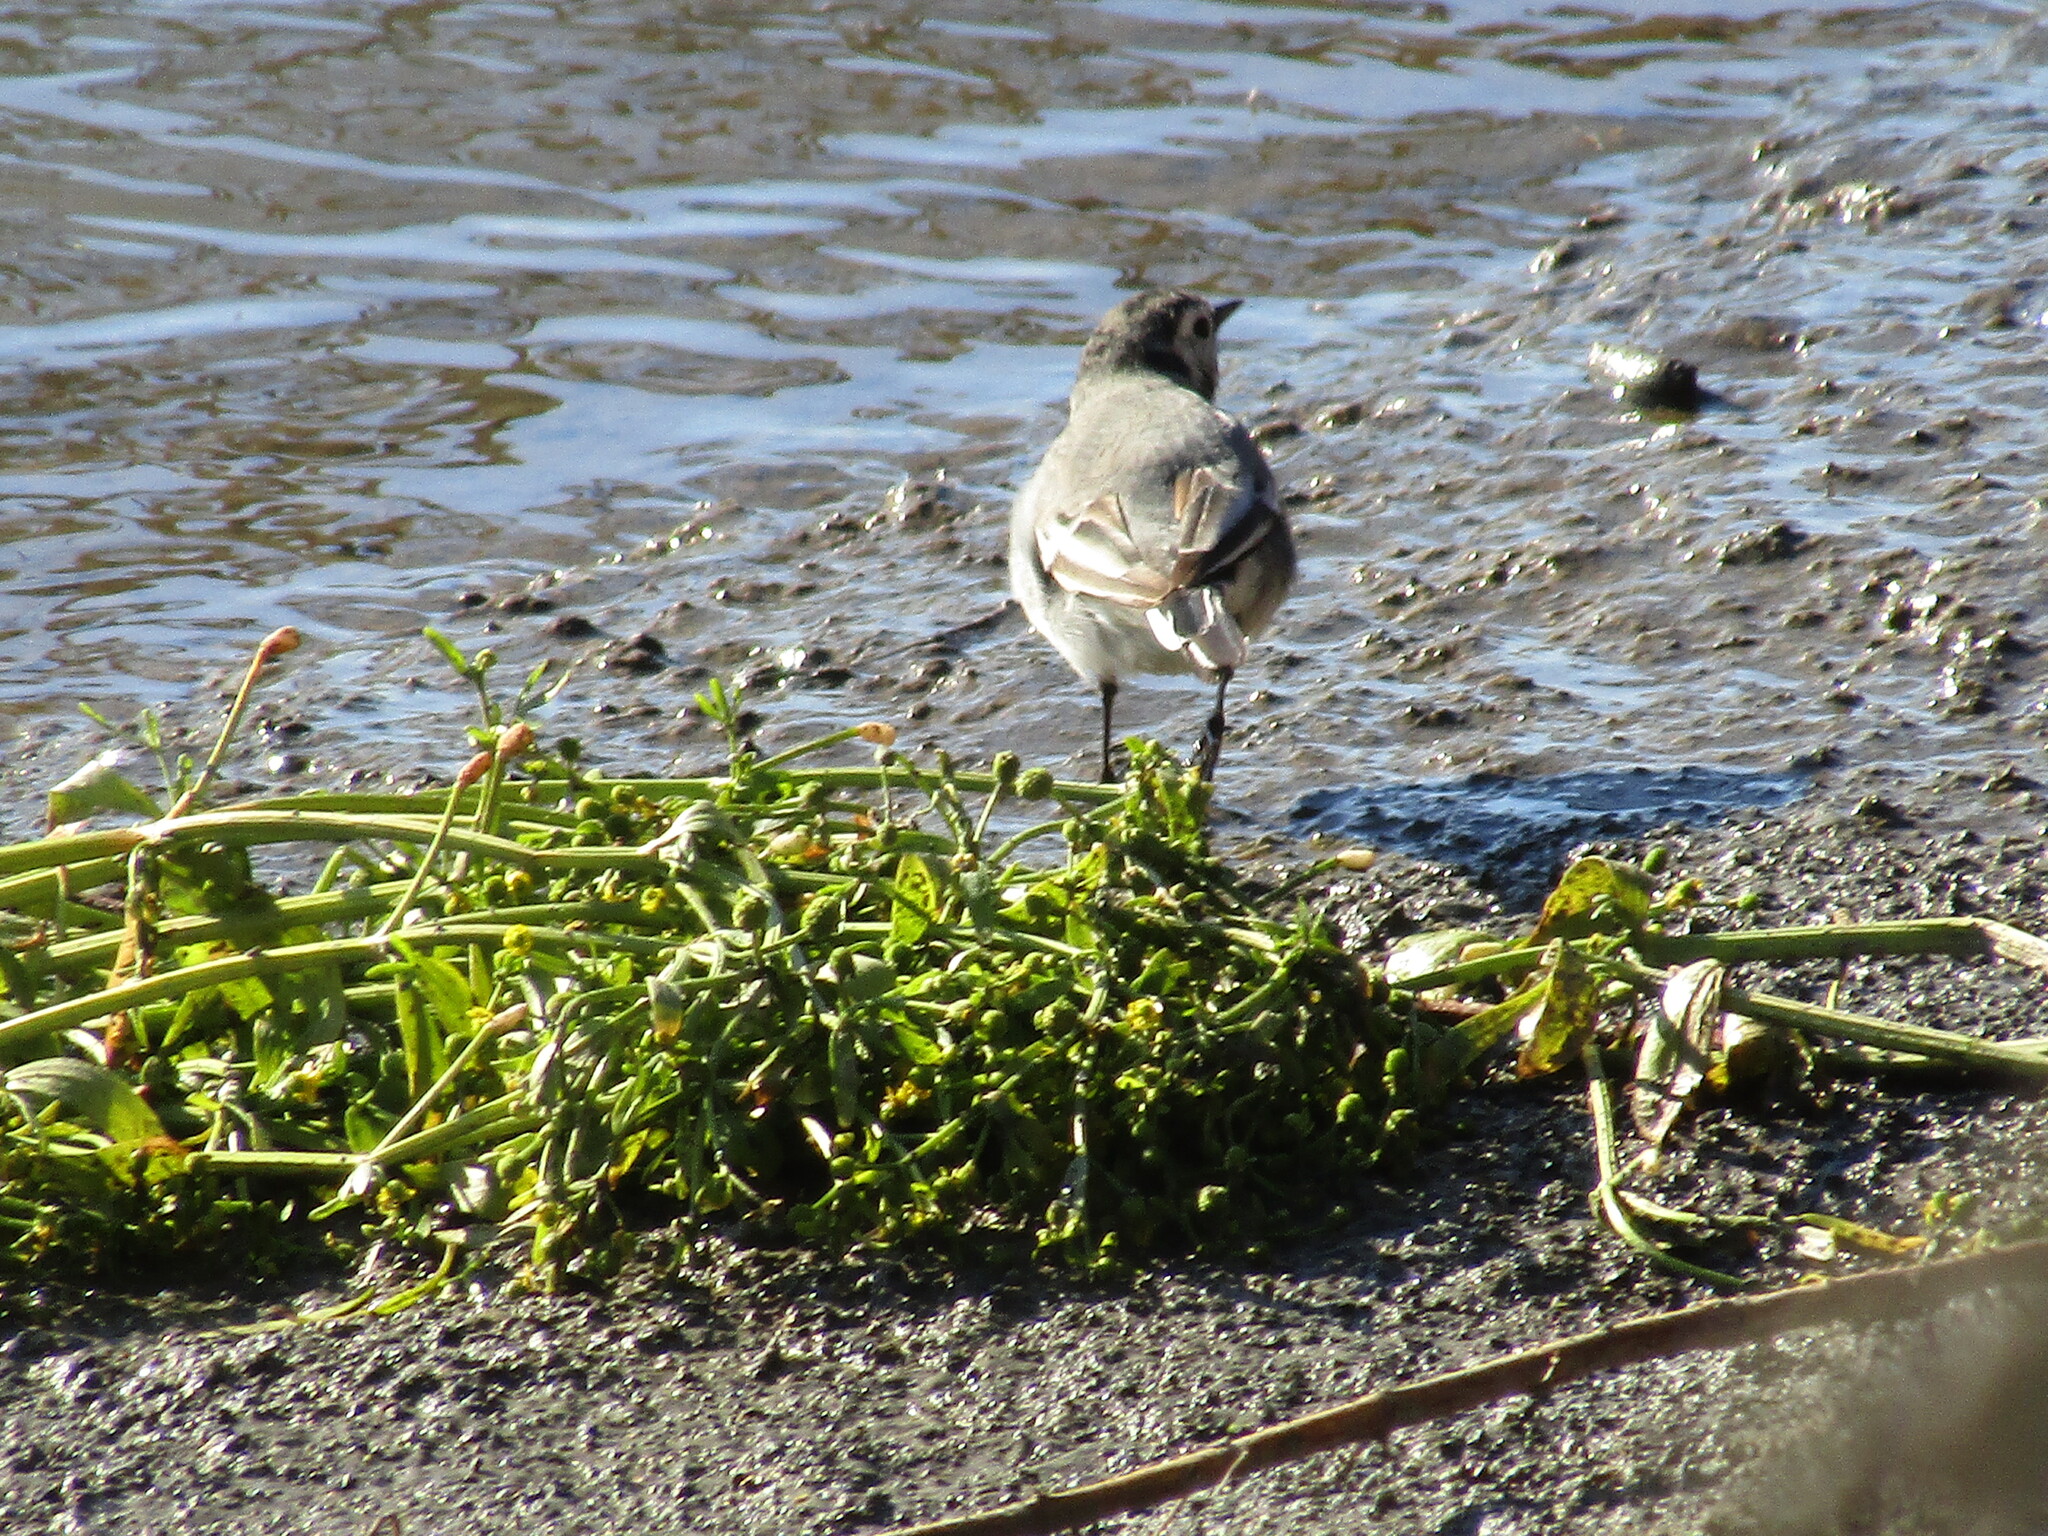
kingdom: Animalia
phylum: Chordata
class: Aves
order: Passeriformes
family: Motacillidae
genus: Motacilla
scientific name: Motacilla alba
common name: White wagtail
